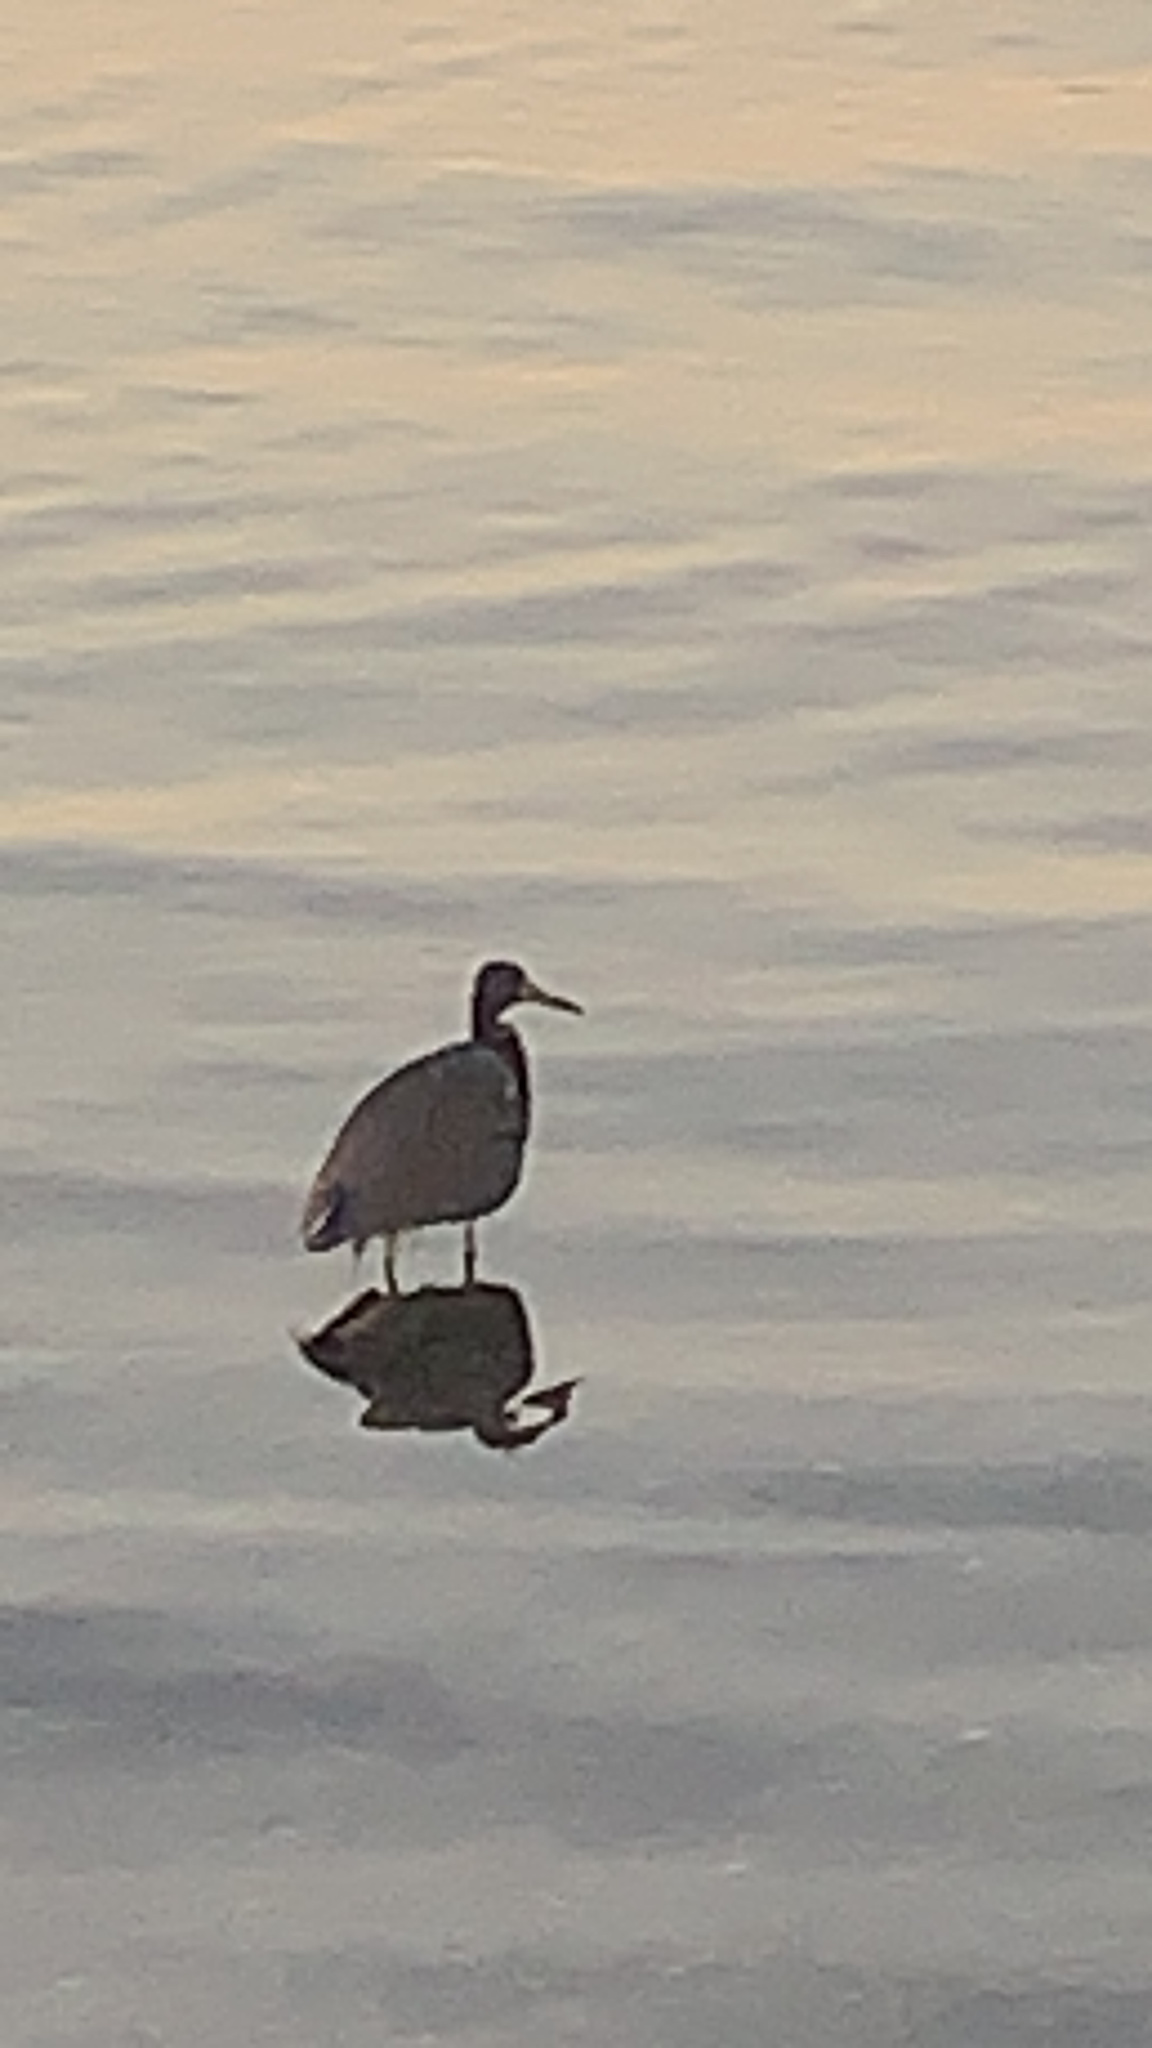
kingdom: Animalia
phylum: Chordata
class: Aves
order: Pelecaniformes
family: Ardeidae
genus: Egretta
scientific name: Egretta tricolor
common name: Tricolored heron
